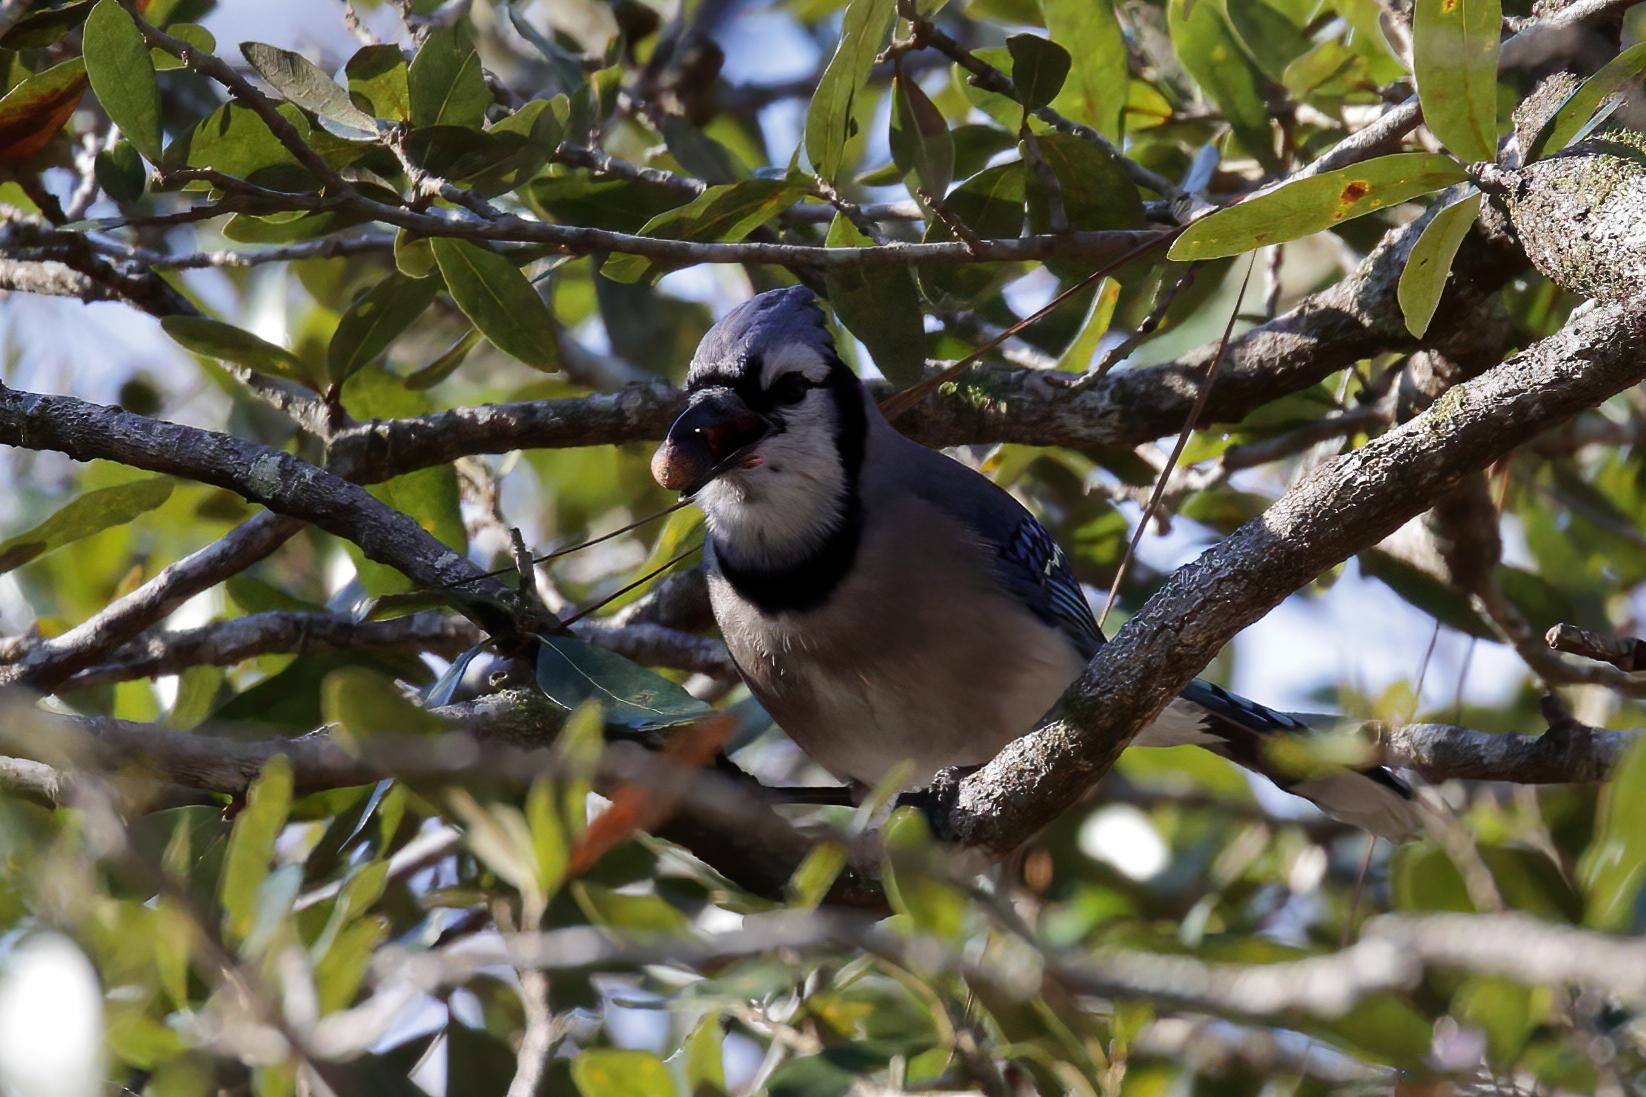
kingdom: Animalia
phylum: Chordata
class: Aves
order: Passeriformes
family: Corvidae
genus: Cyanocitta
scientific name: Cyanocitta cristata
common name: Blue jay
